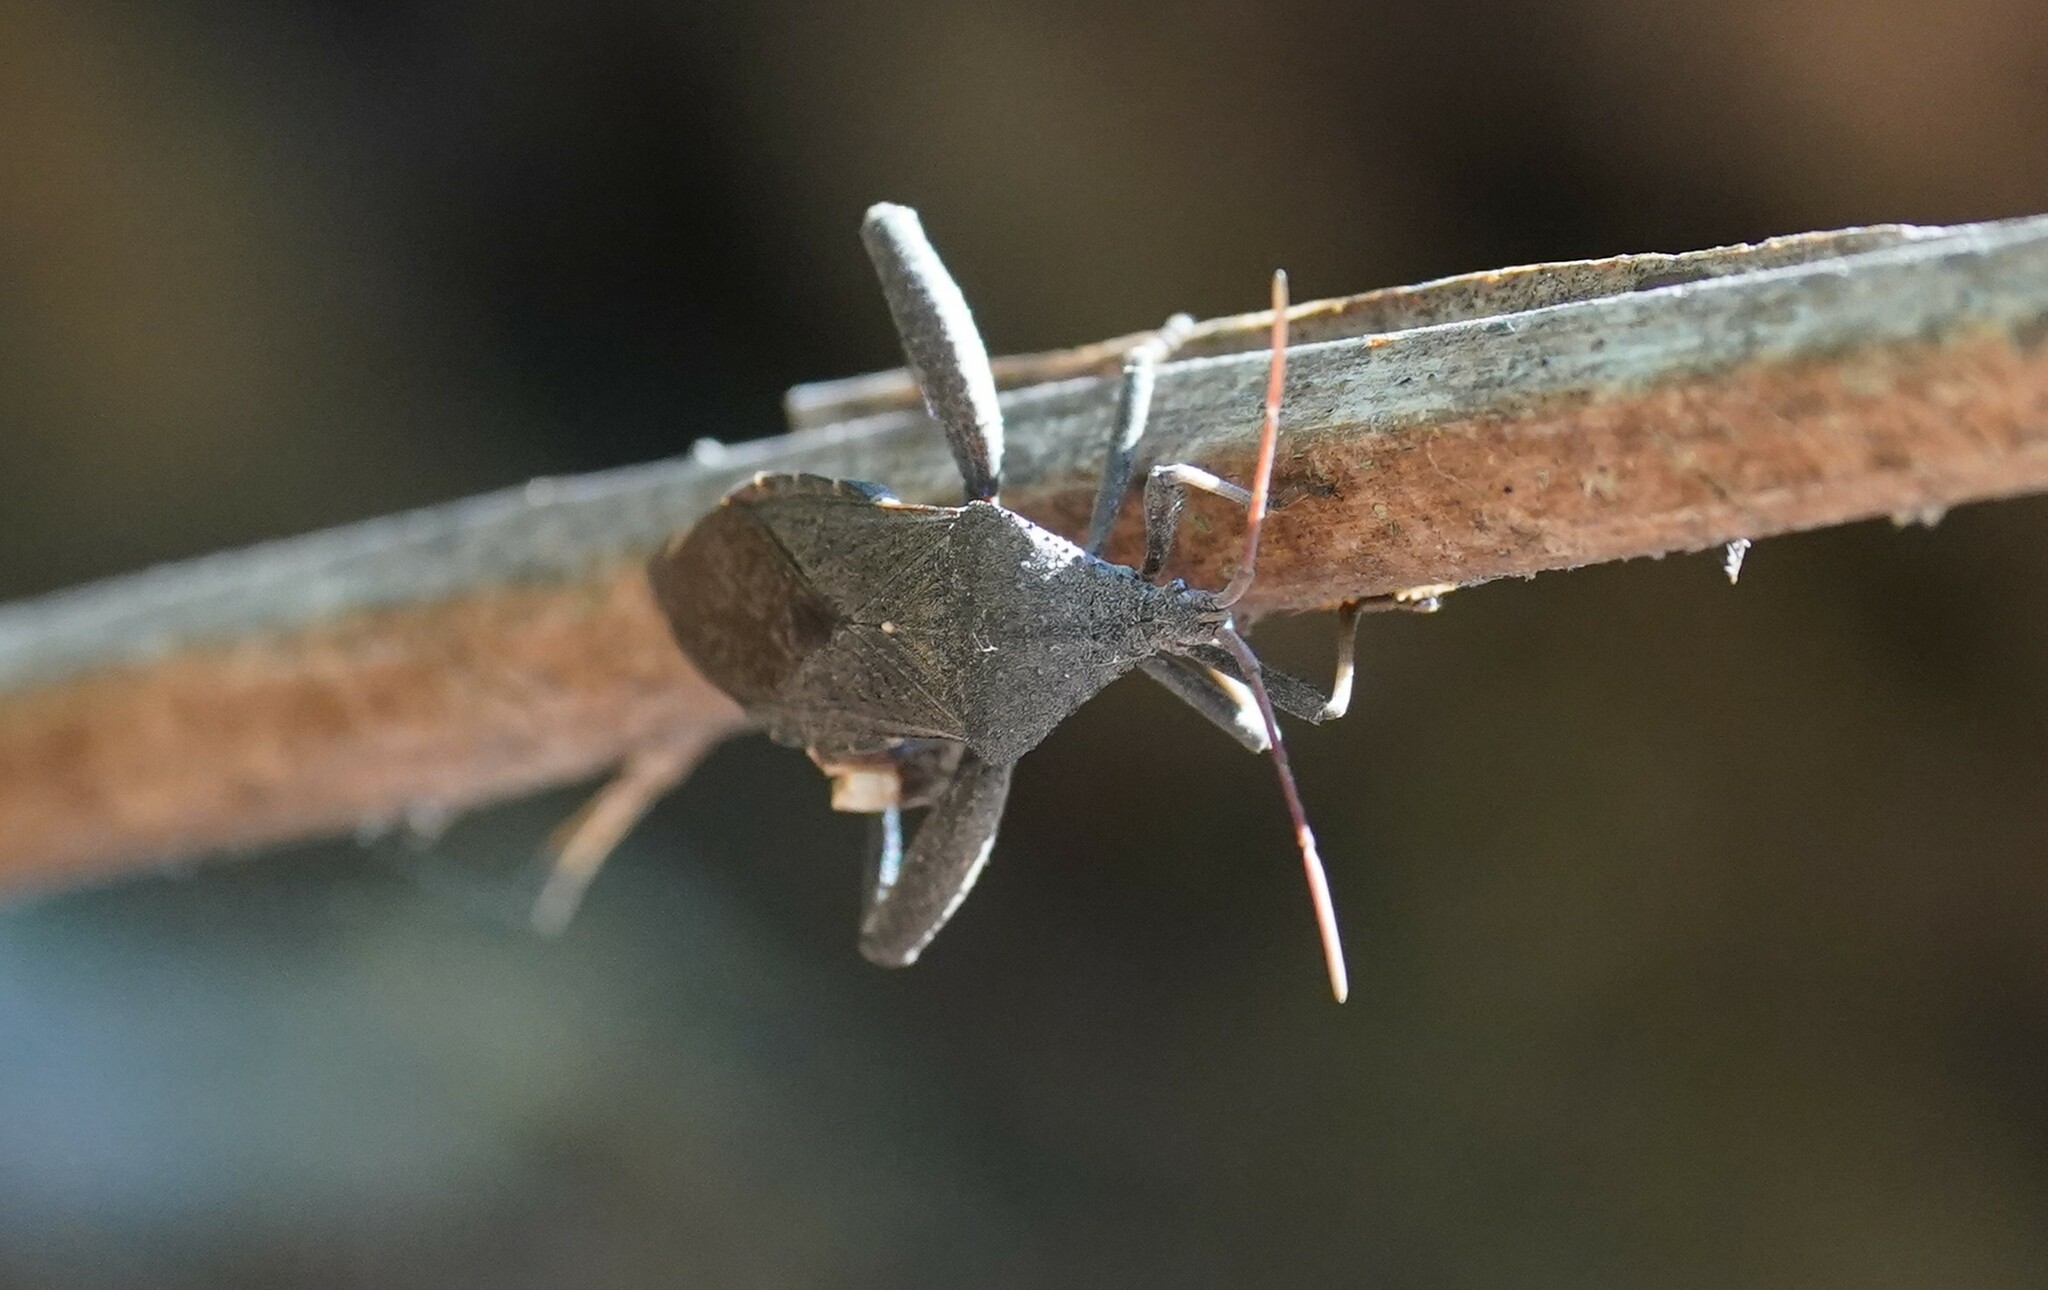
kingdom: Animalia
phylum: Arthropoda
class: Insecta
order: Hemiptera
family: Coreidae
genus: Acanthocephala
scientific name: Acanthocephala femorata
